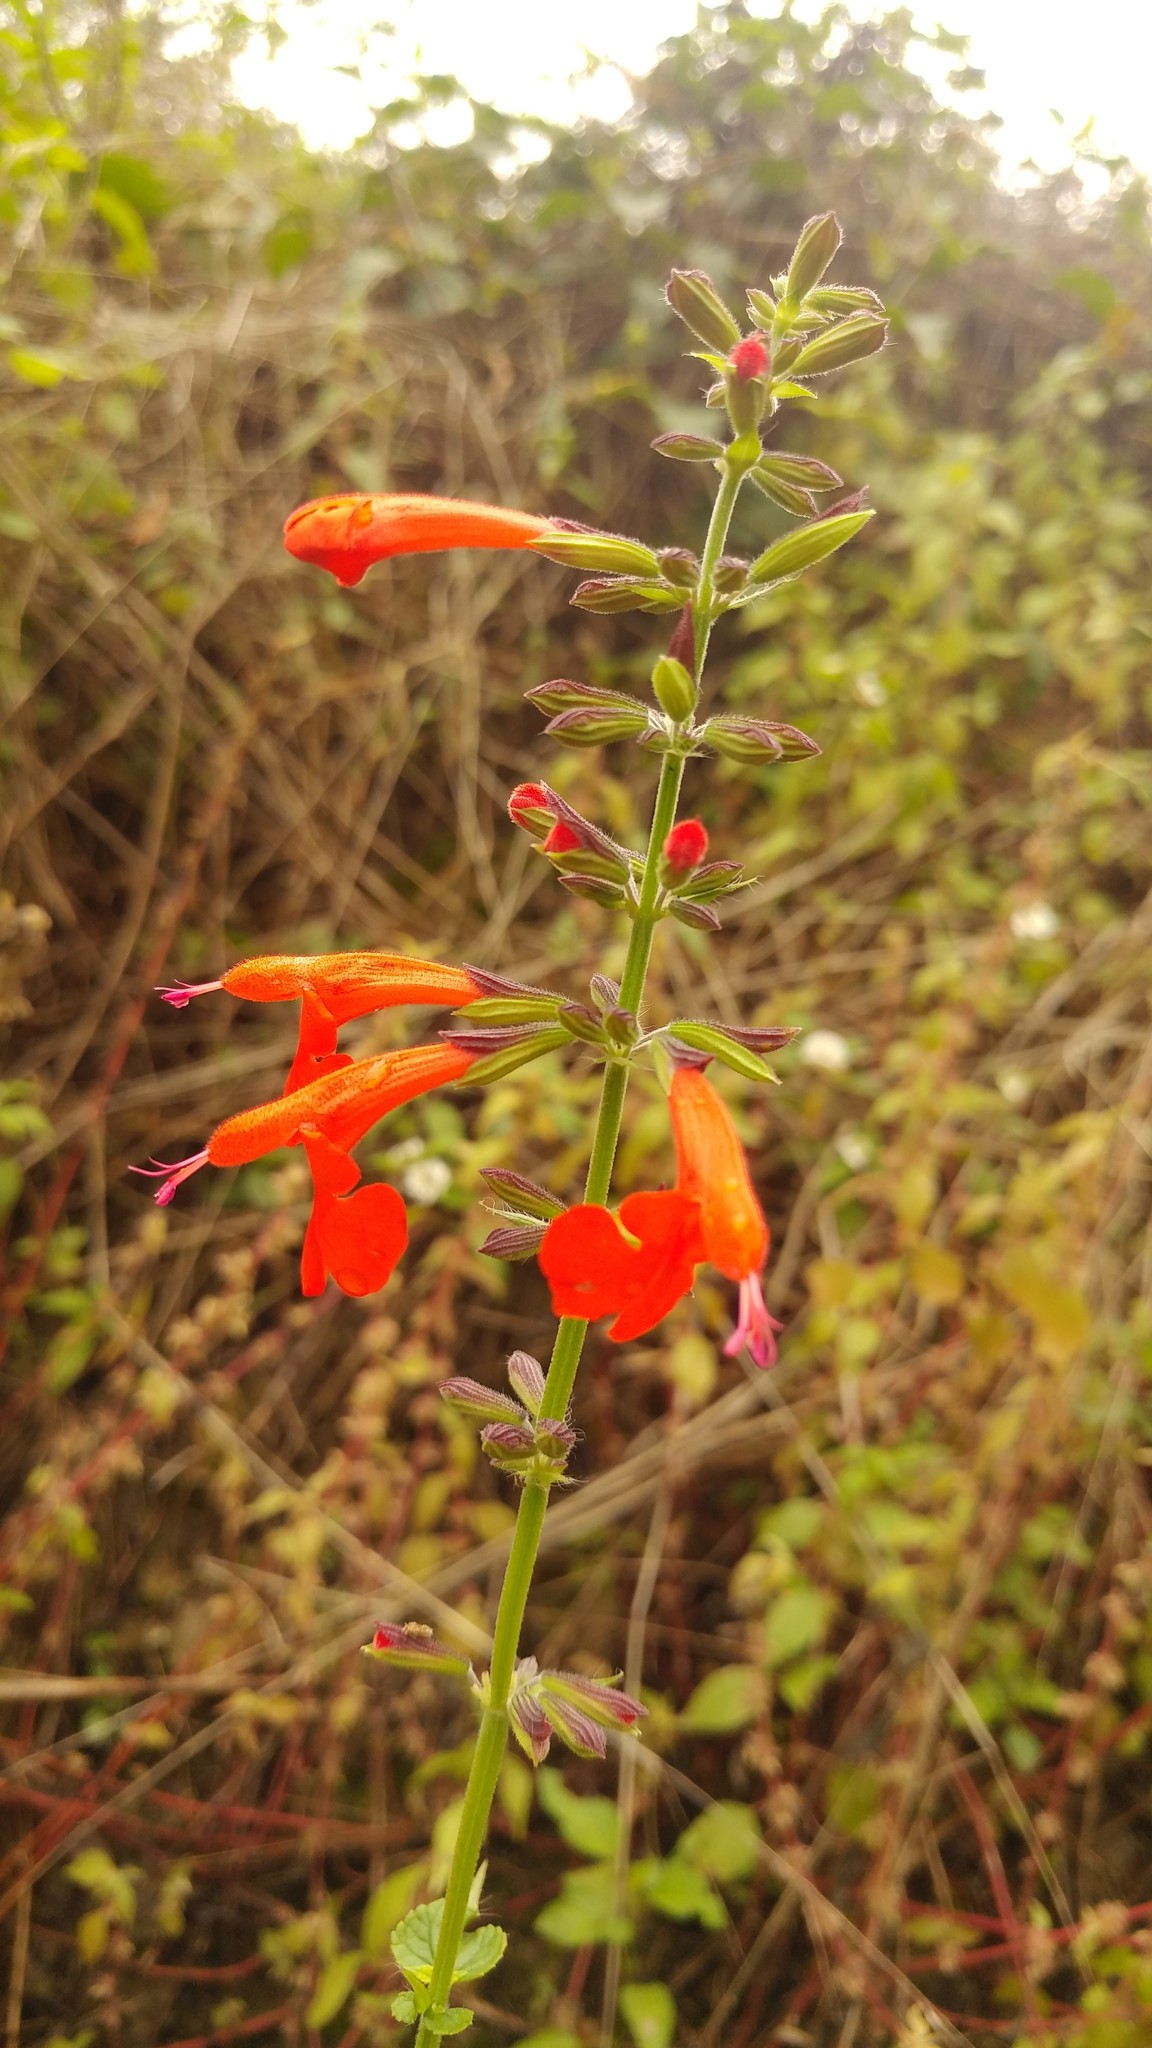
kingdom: Plantae
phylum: Tracheophyta
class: Magnoliopsida
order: Lamiales
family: Lamiaceae
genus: Salvia
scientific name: Salvia coccinea
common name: Blood sage
